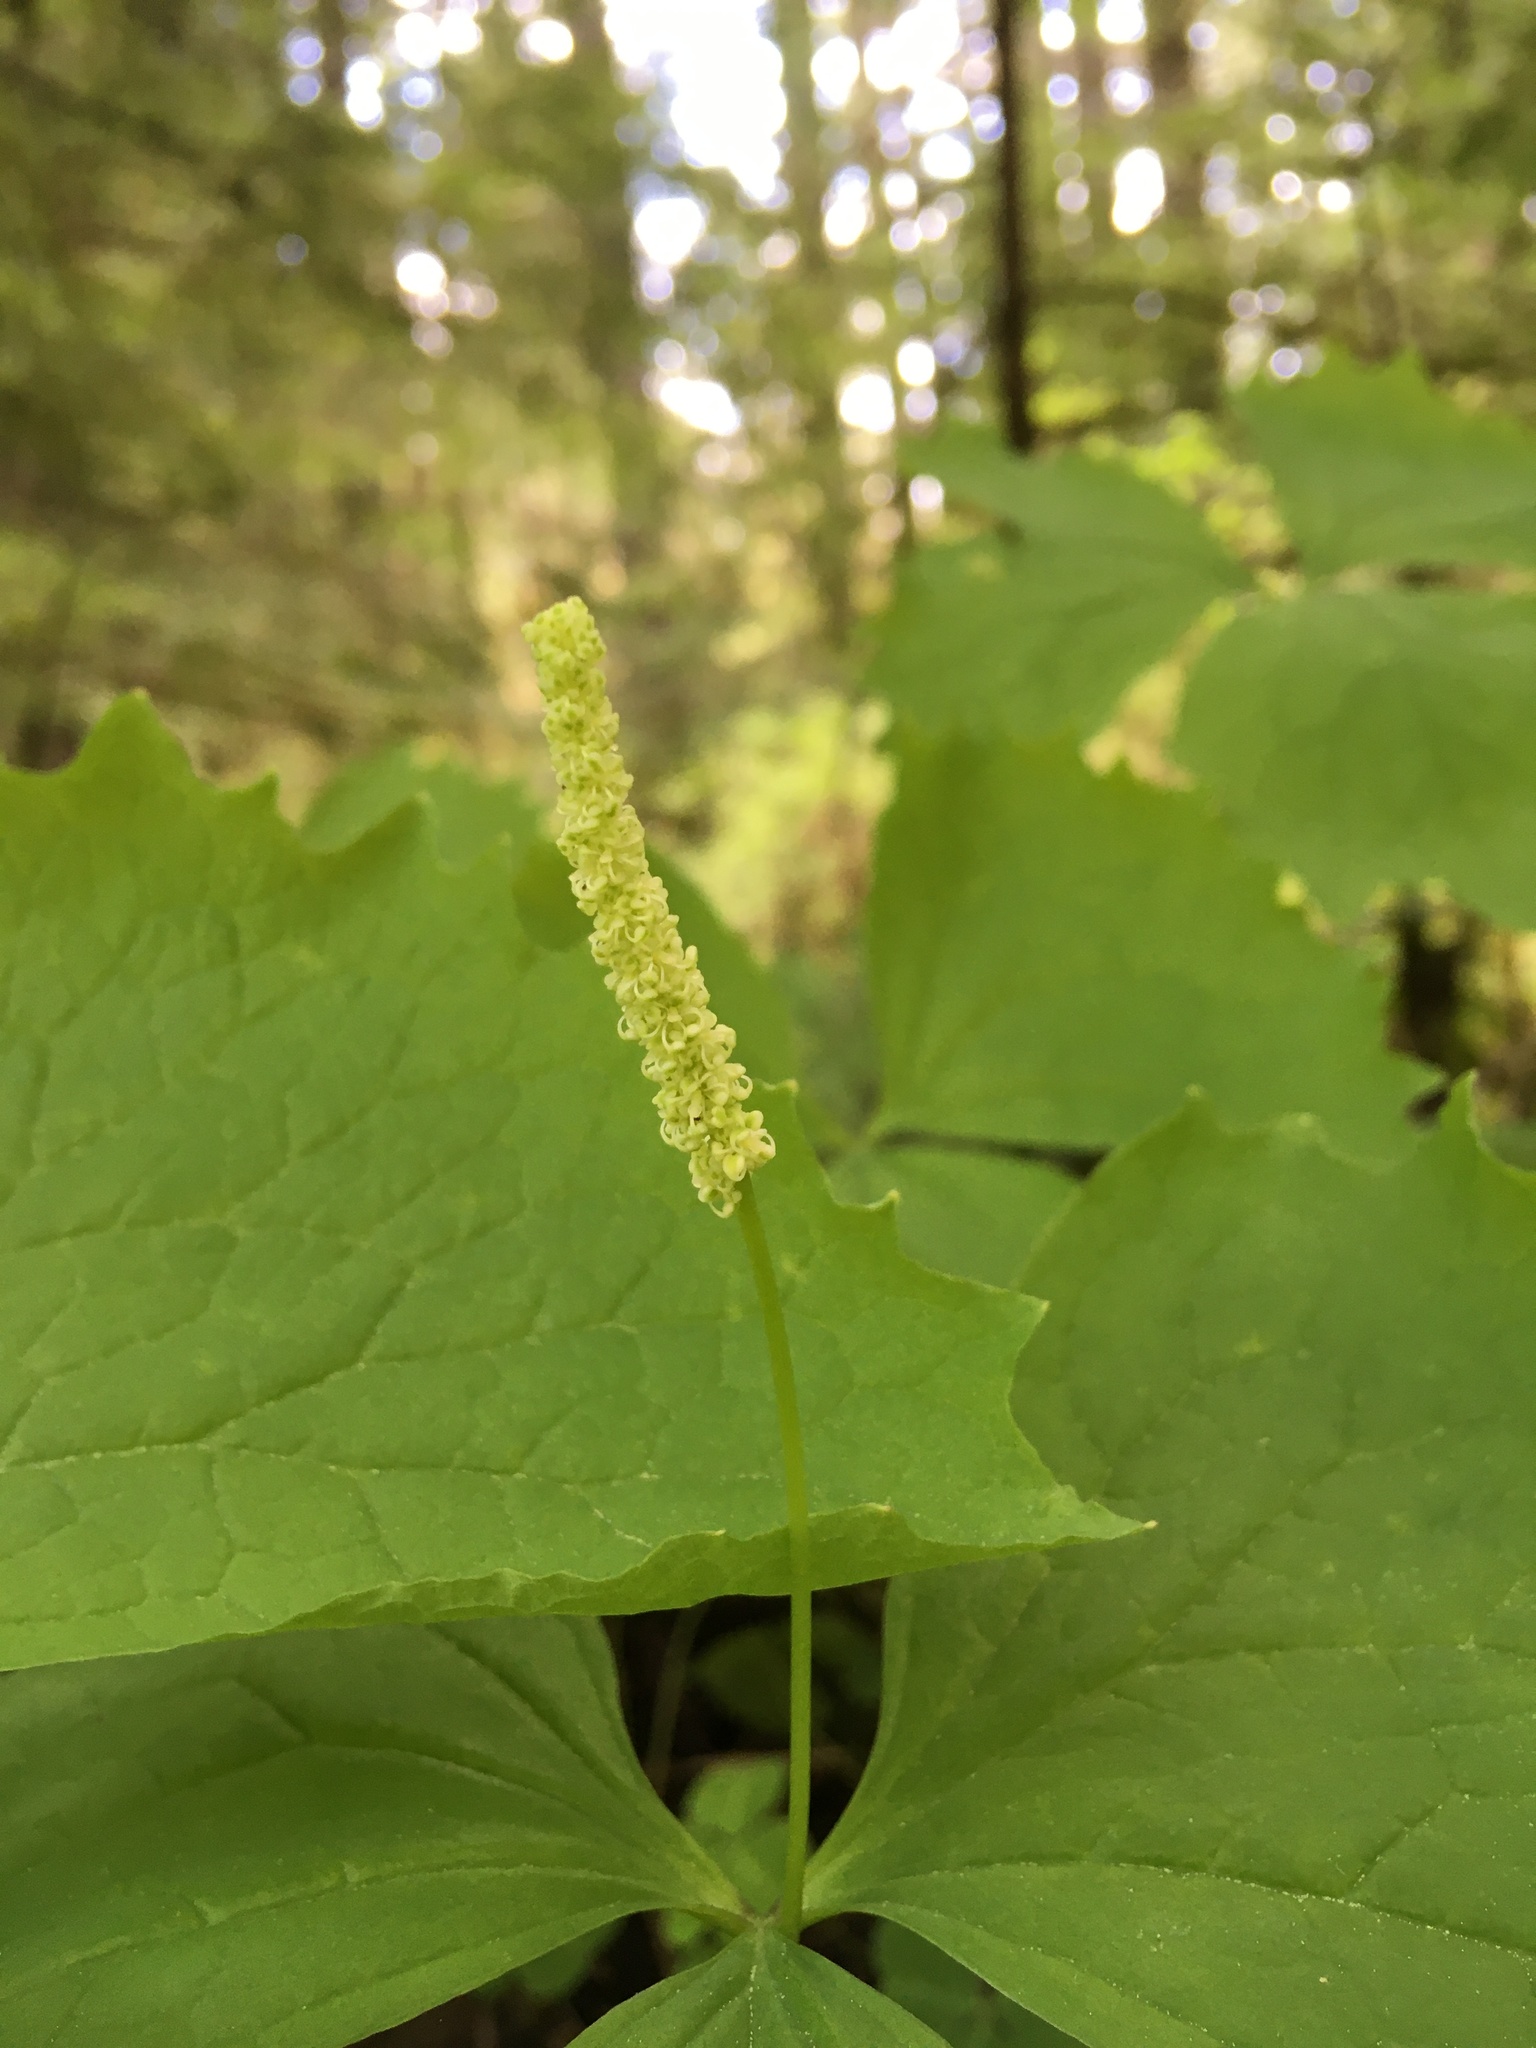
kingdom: Plantae
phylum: Tracheophyta
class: Magnoliopsida
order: Ranunculales
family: Berberidaceae
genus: Achlys
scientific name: Achlys triphylla
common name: Vanilla-leaf
